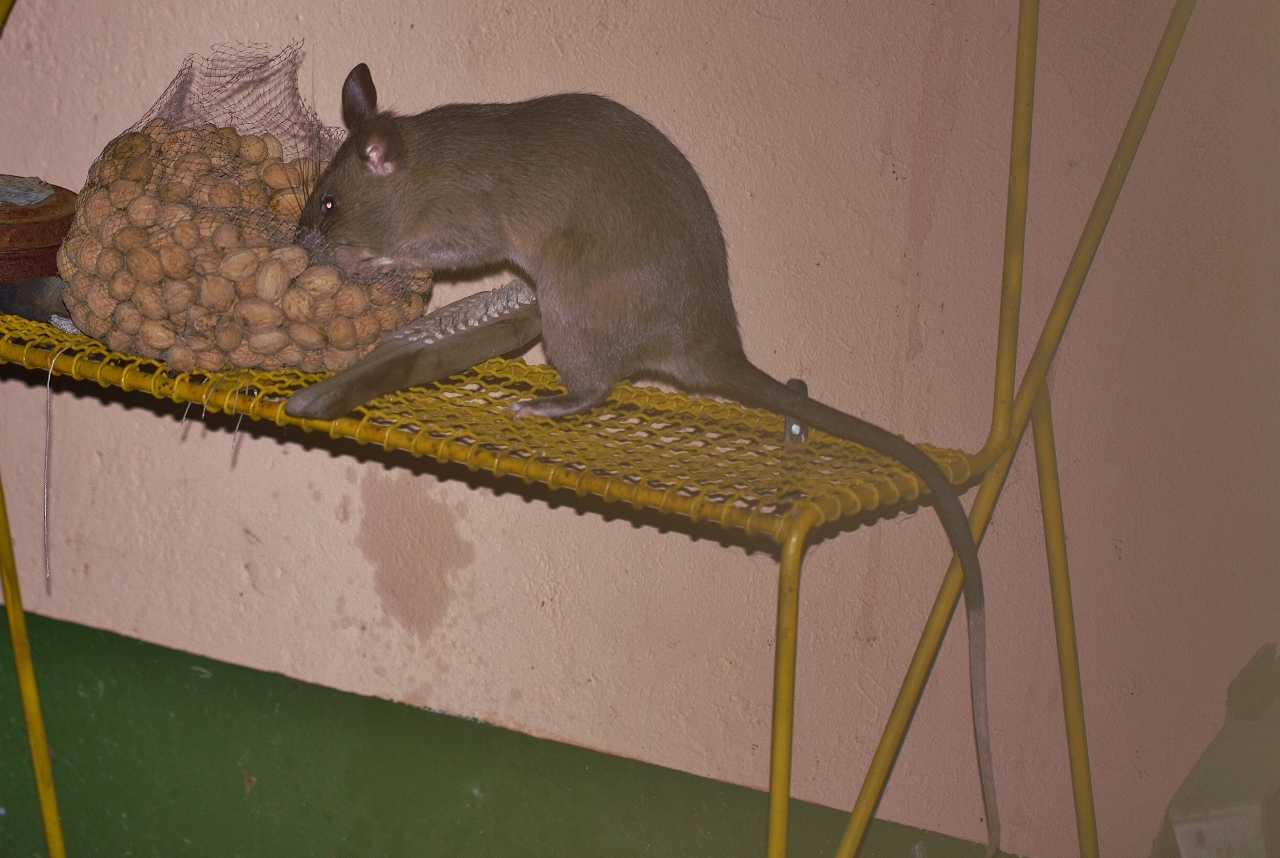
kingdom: Animalia
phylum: Chordata
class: Mammalia
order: Rodentia
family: Nesomyidae
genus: Cricetomys
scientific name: Cricetomys ansorgei
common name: Southern giant pouched rat
